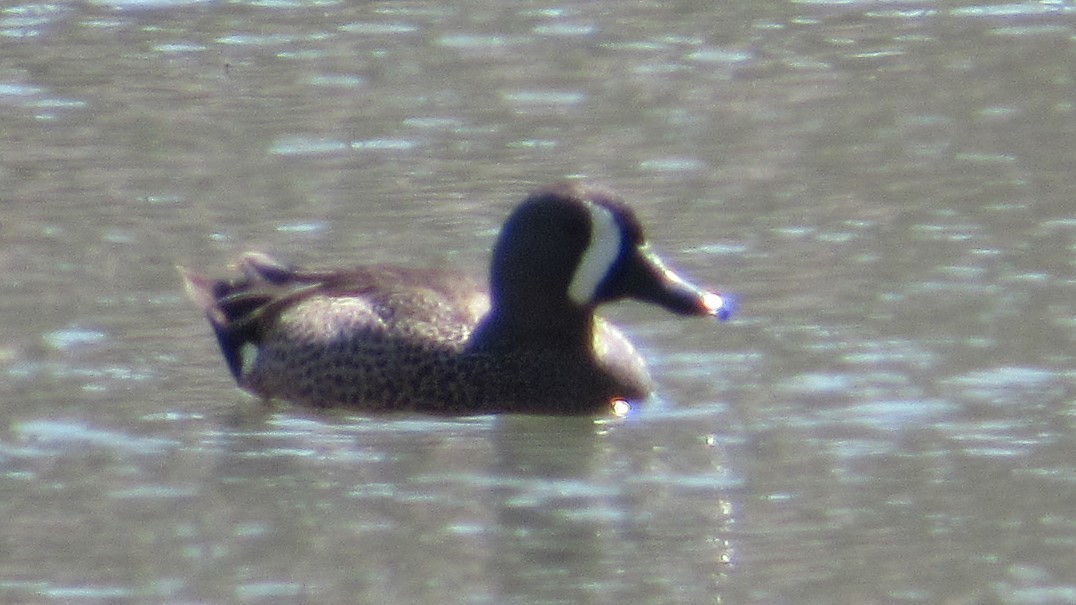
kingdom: Animalia
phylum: Chordata
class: Aves
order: Anseriformes
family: Anatidae
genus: Spatula
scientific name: Spatula discors
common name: Blue-winged teal
